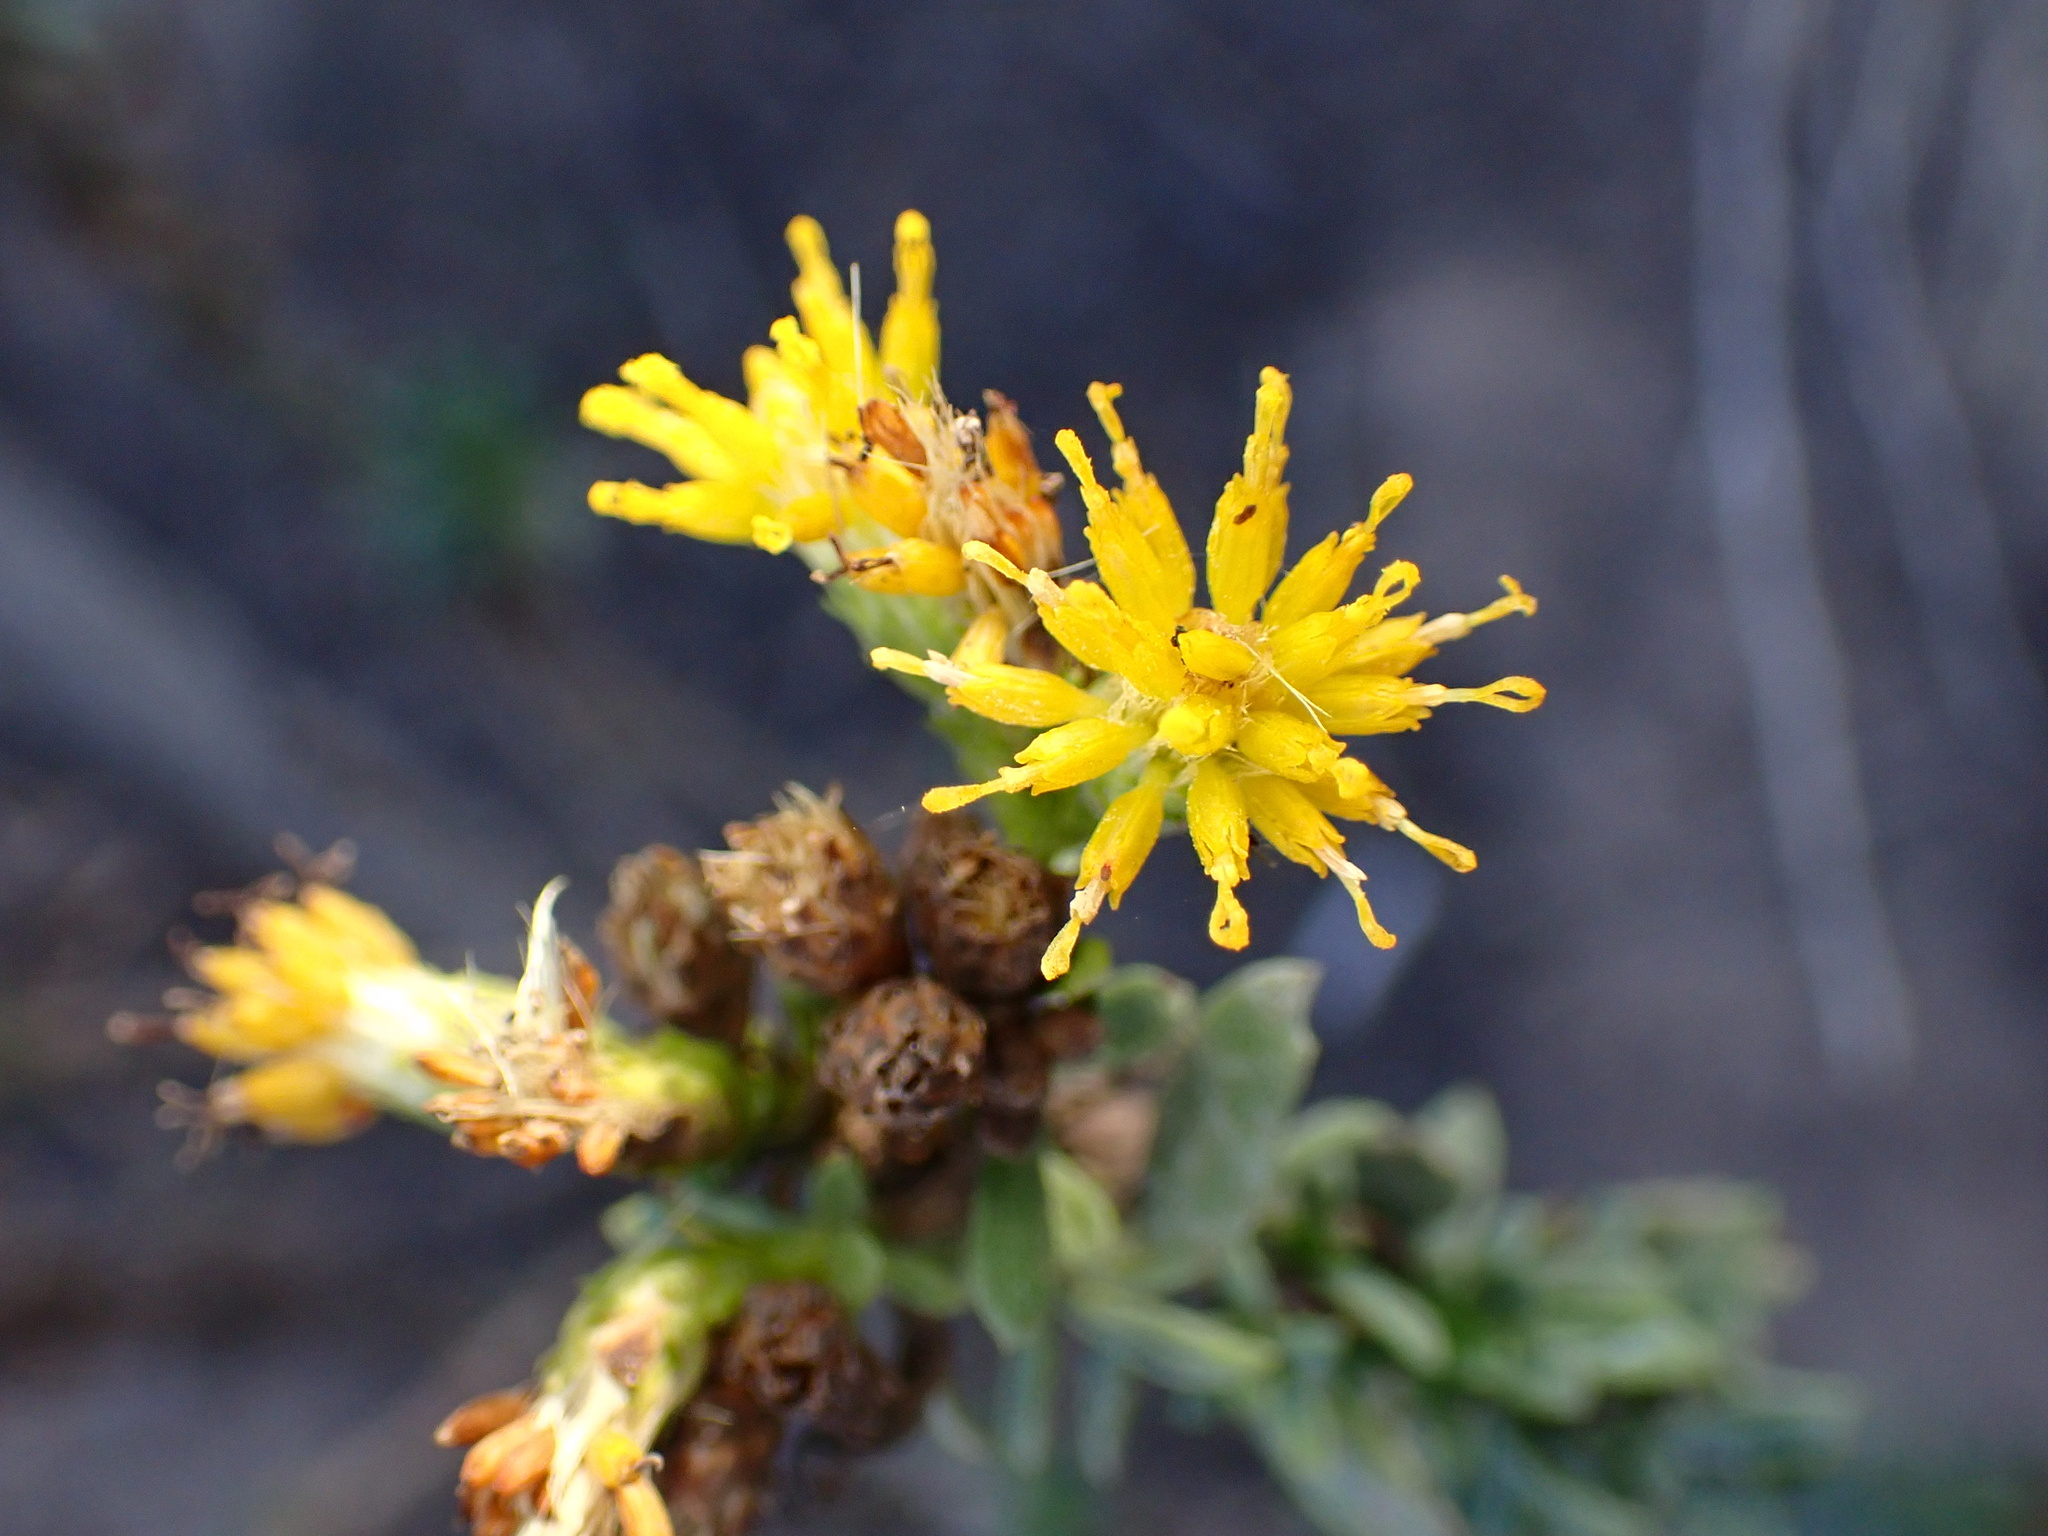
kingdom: Plantae
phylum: Tracheophyta
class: Magnoliopsida
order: Asterales
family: Asteraceae
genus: Isocoma
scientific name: Isocoma menziesii
